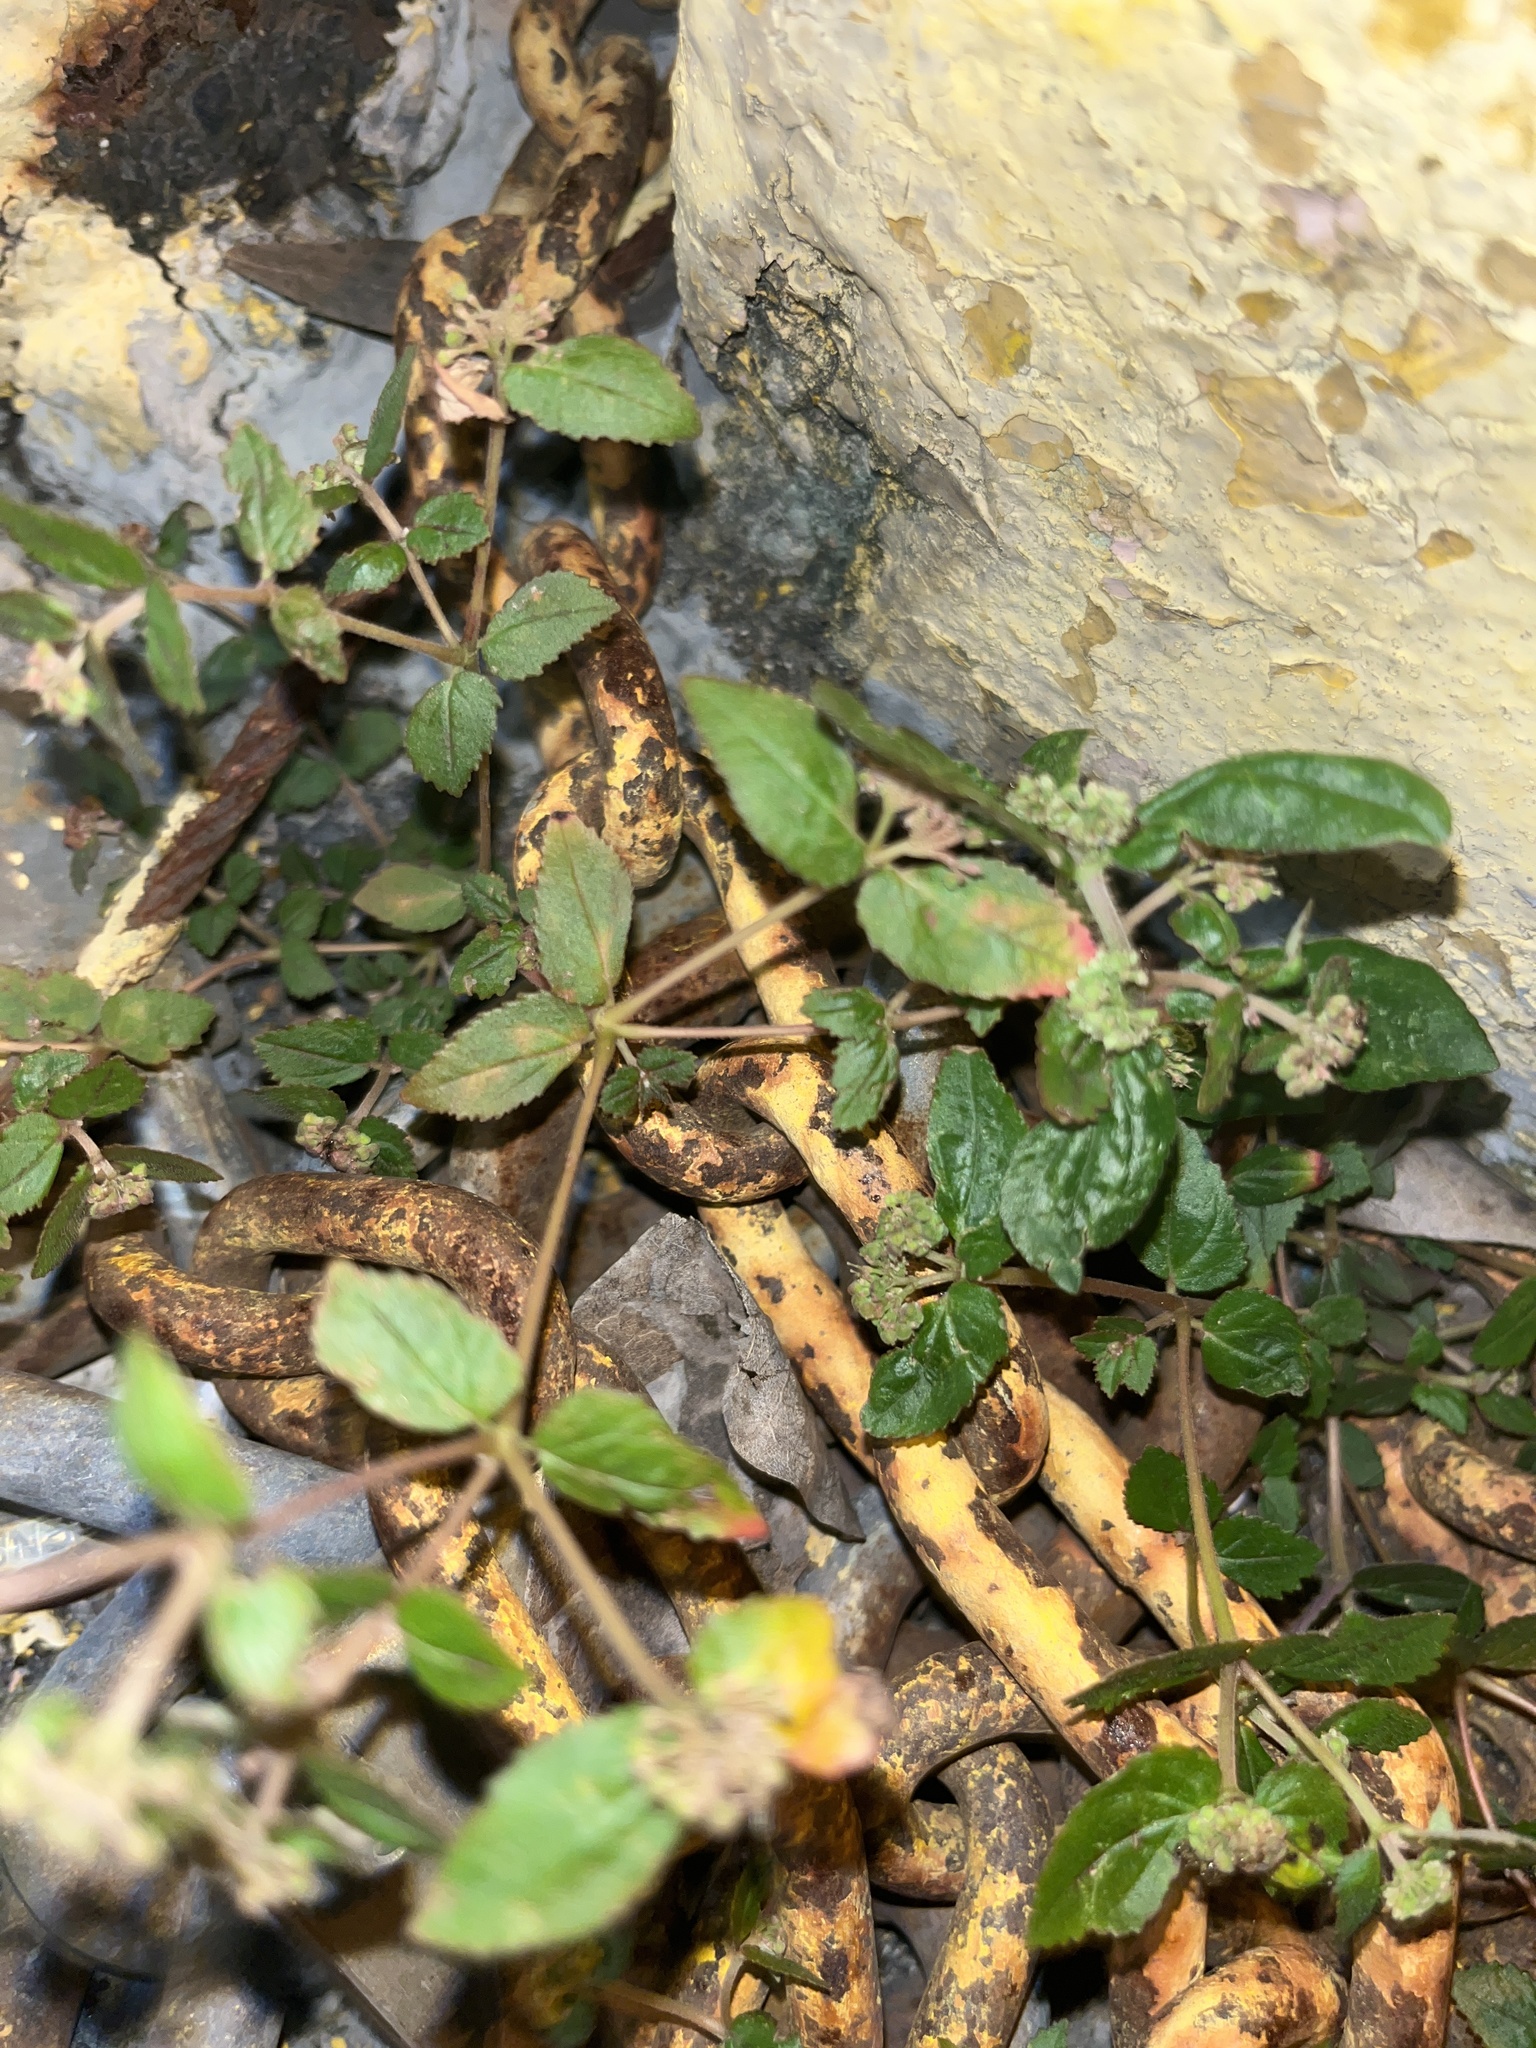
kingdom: Plantae
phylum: Tracheophyta
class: Magnoliopsida
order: Malpighiales
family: Euphorbiaceae
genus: Euphorbia
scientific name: Euphorbia ophthalmica
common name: Florida hammock sandmat
